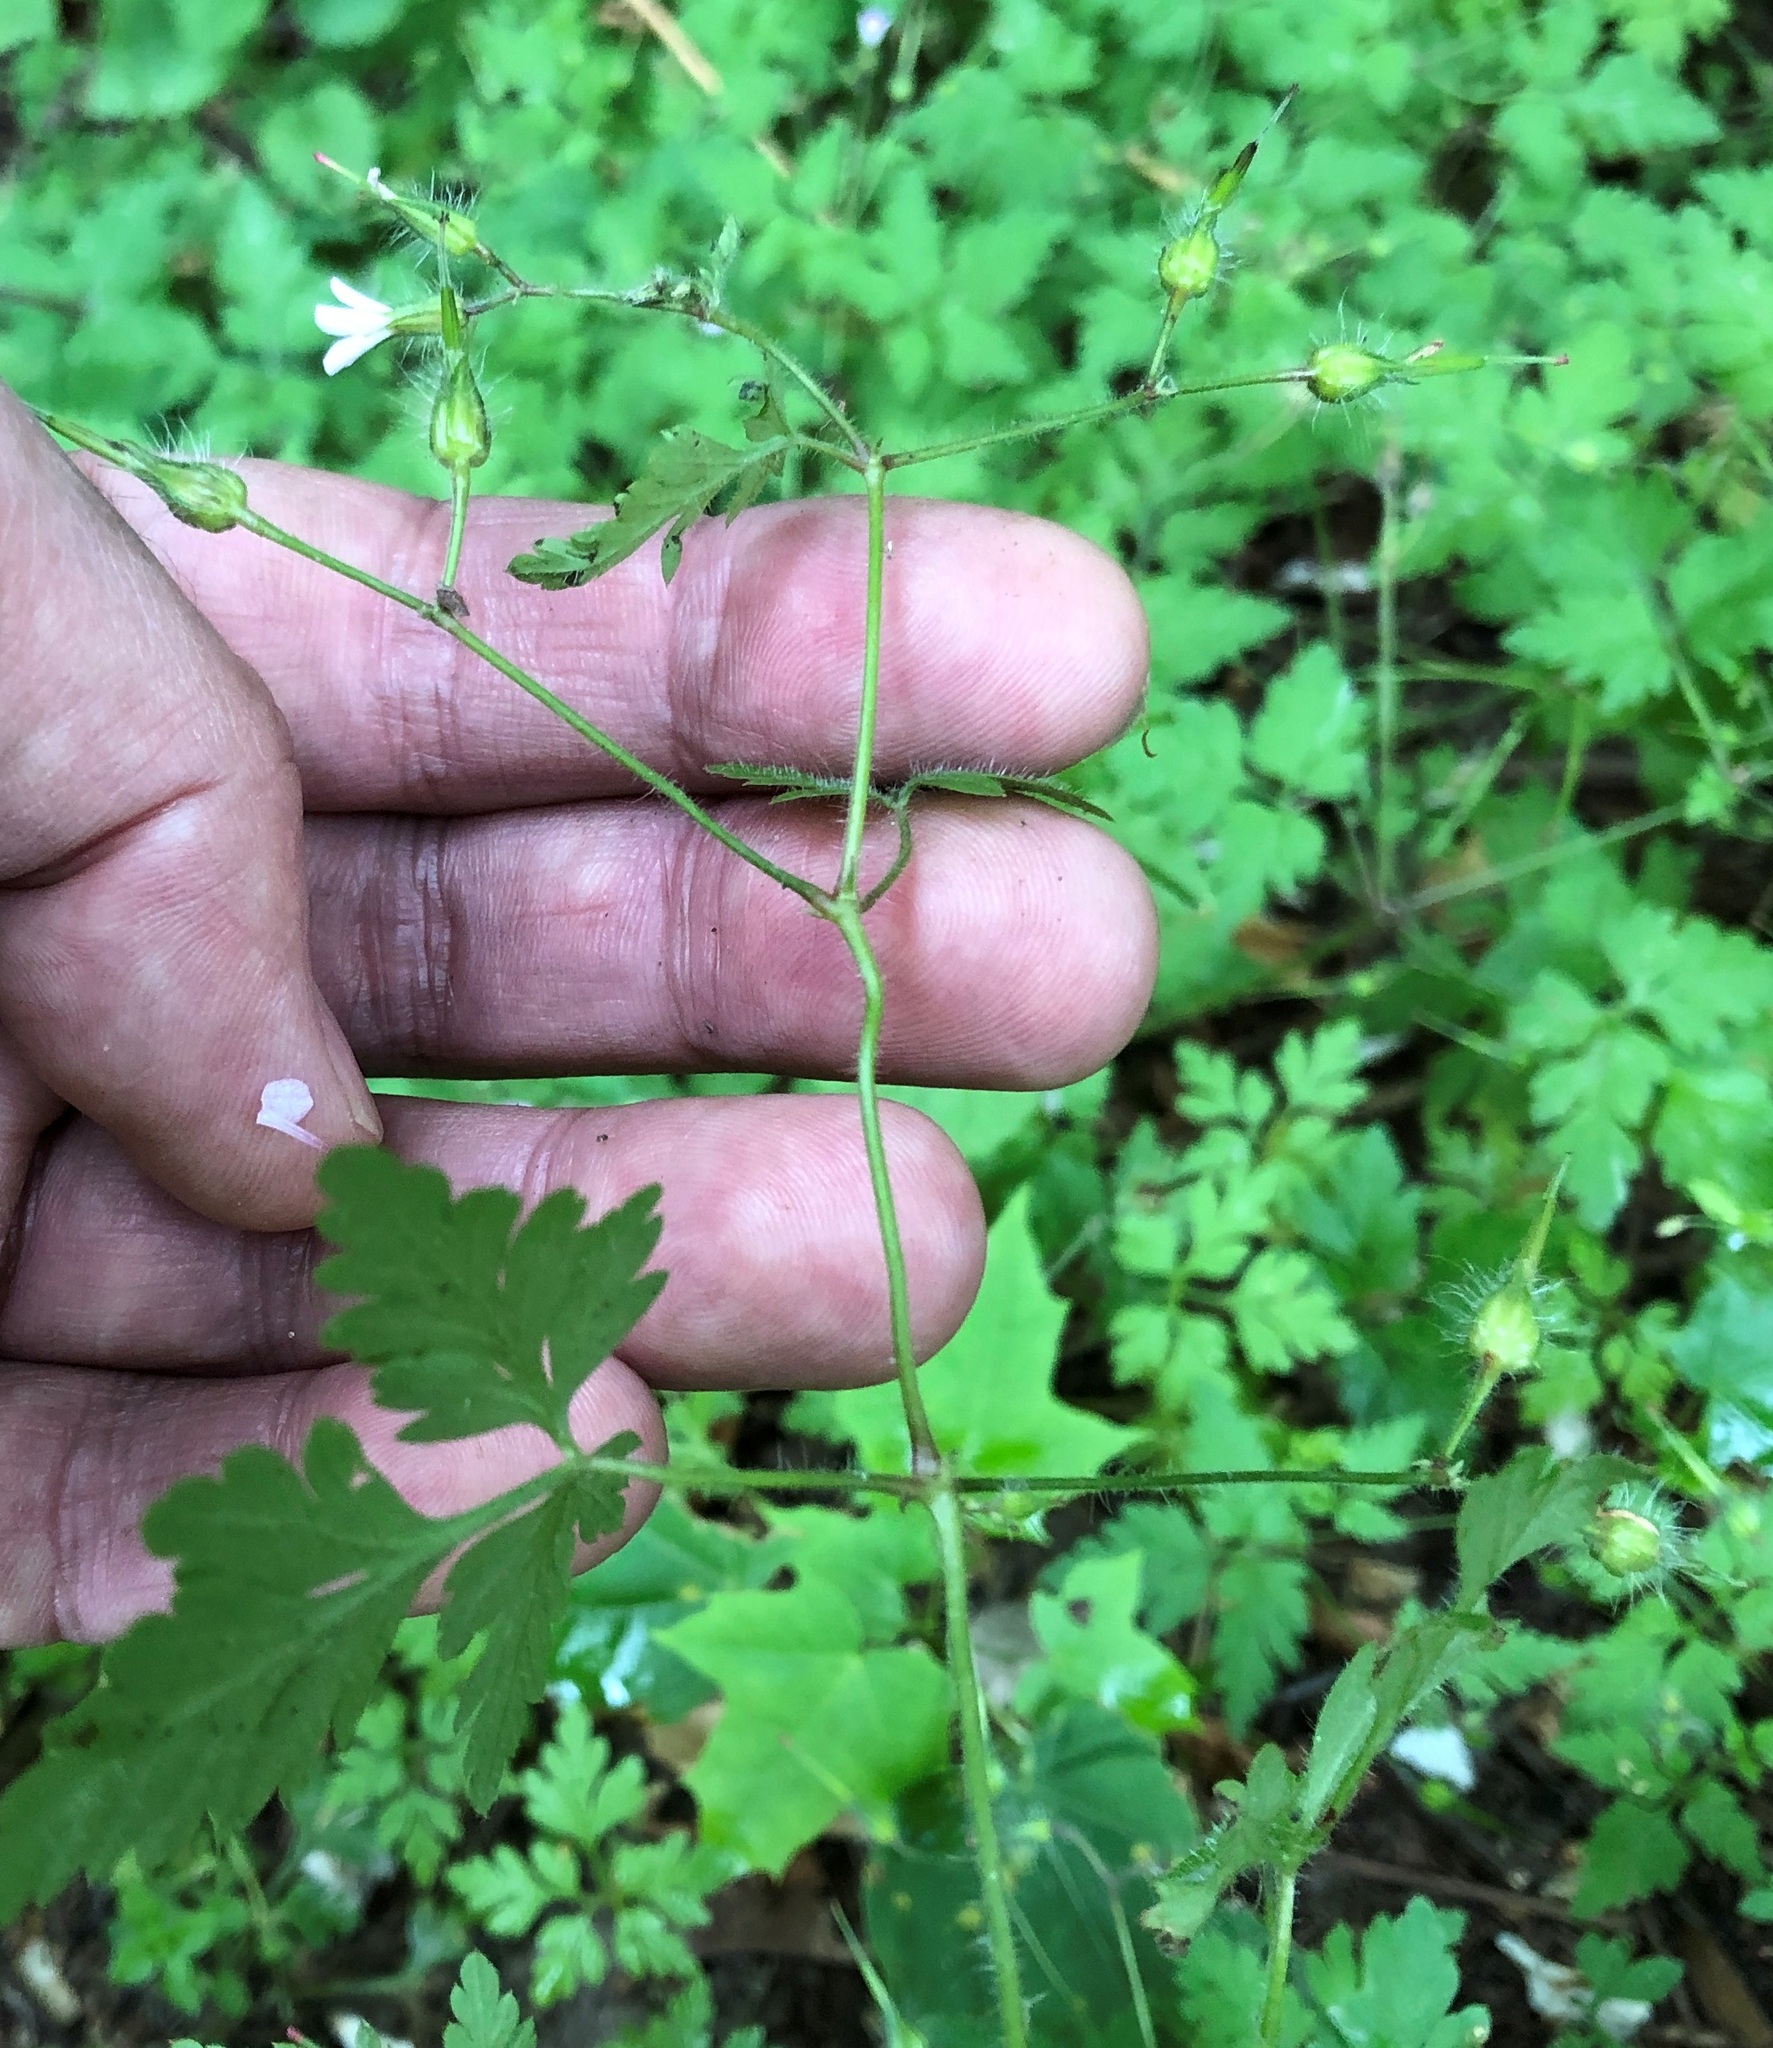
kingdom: Plantae
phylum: Tracheophyta
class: Magnoliopsida
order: Geraniales
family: Geraniaceae
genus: Geranium
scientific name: Geranium robertianum
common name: Herb-robert
